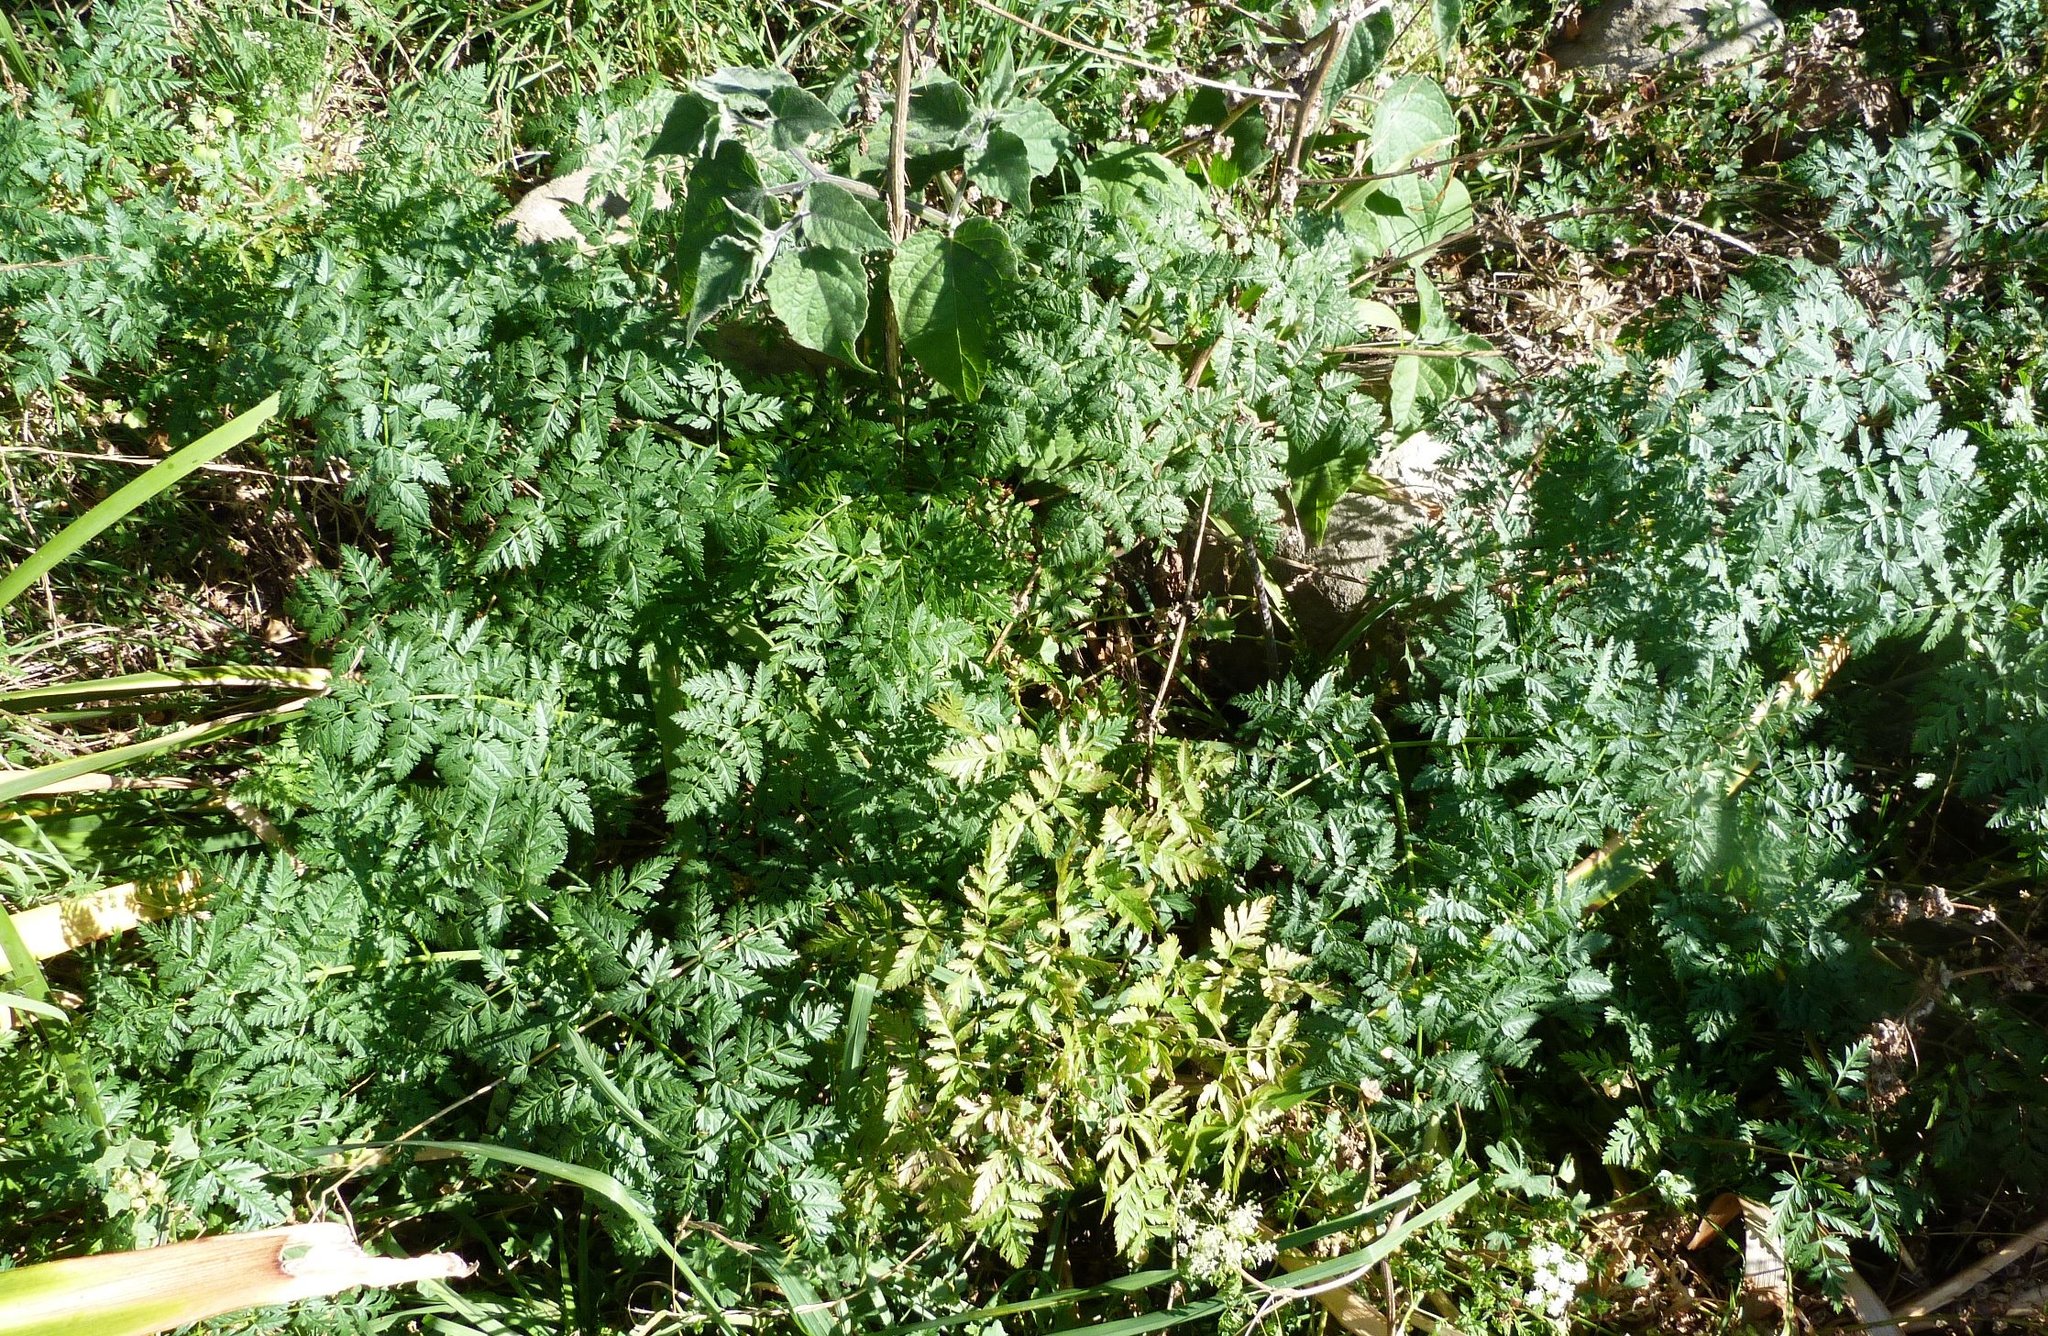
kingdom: Plantae
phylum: Tracheophyta
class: Magnoliopsida
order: Apiales
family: Apiaceae
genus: Conium
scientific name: Conium maculatum
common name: Hemlock
